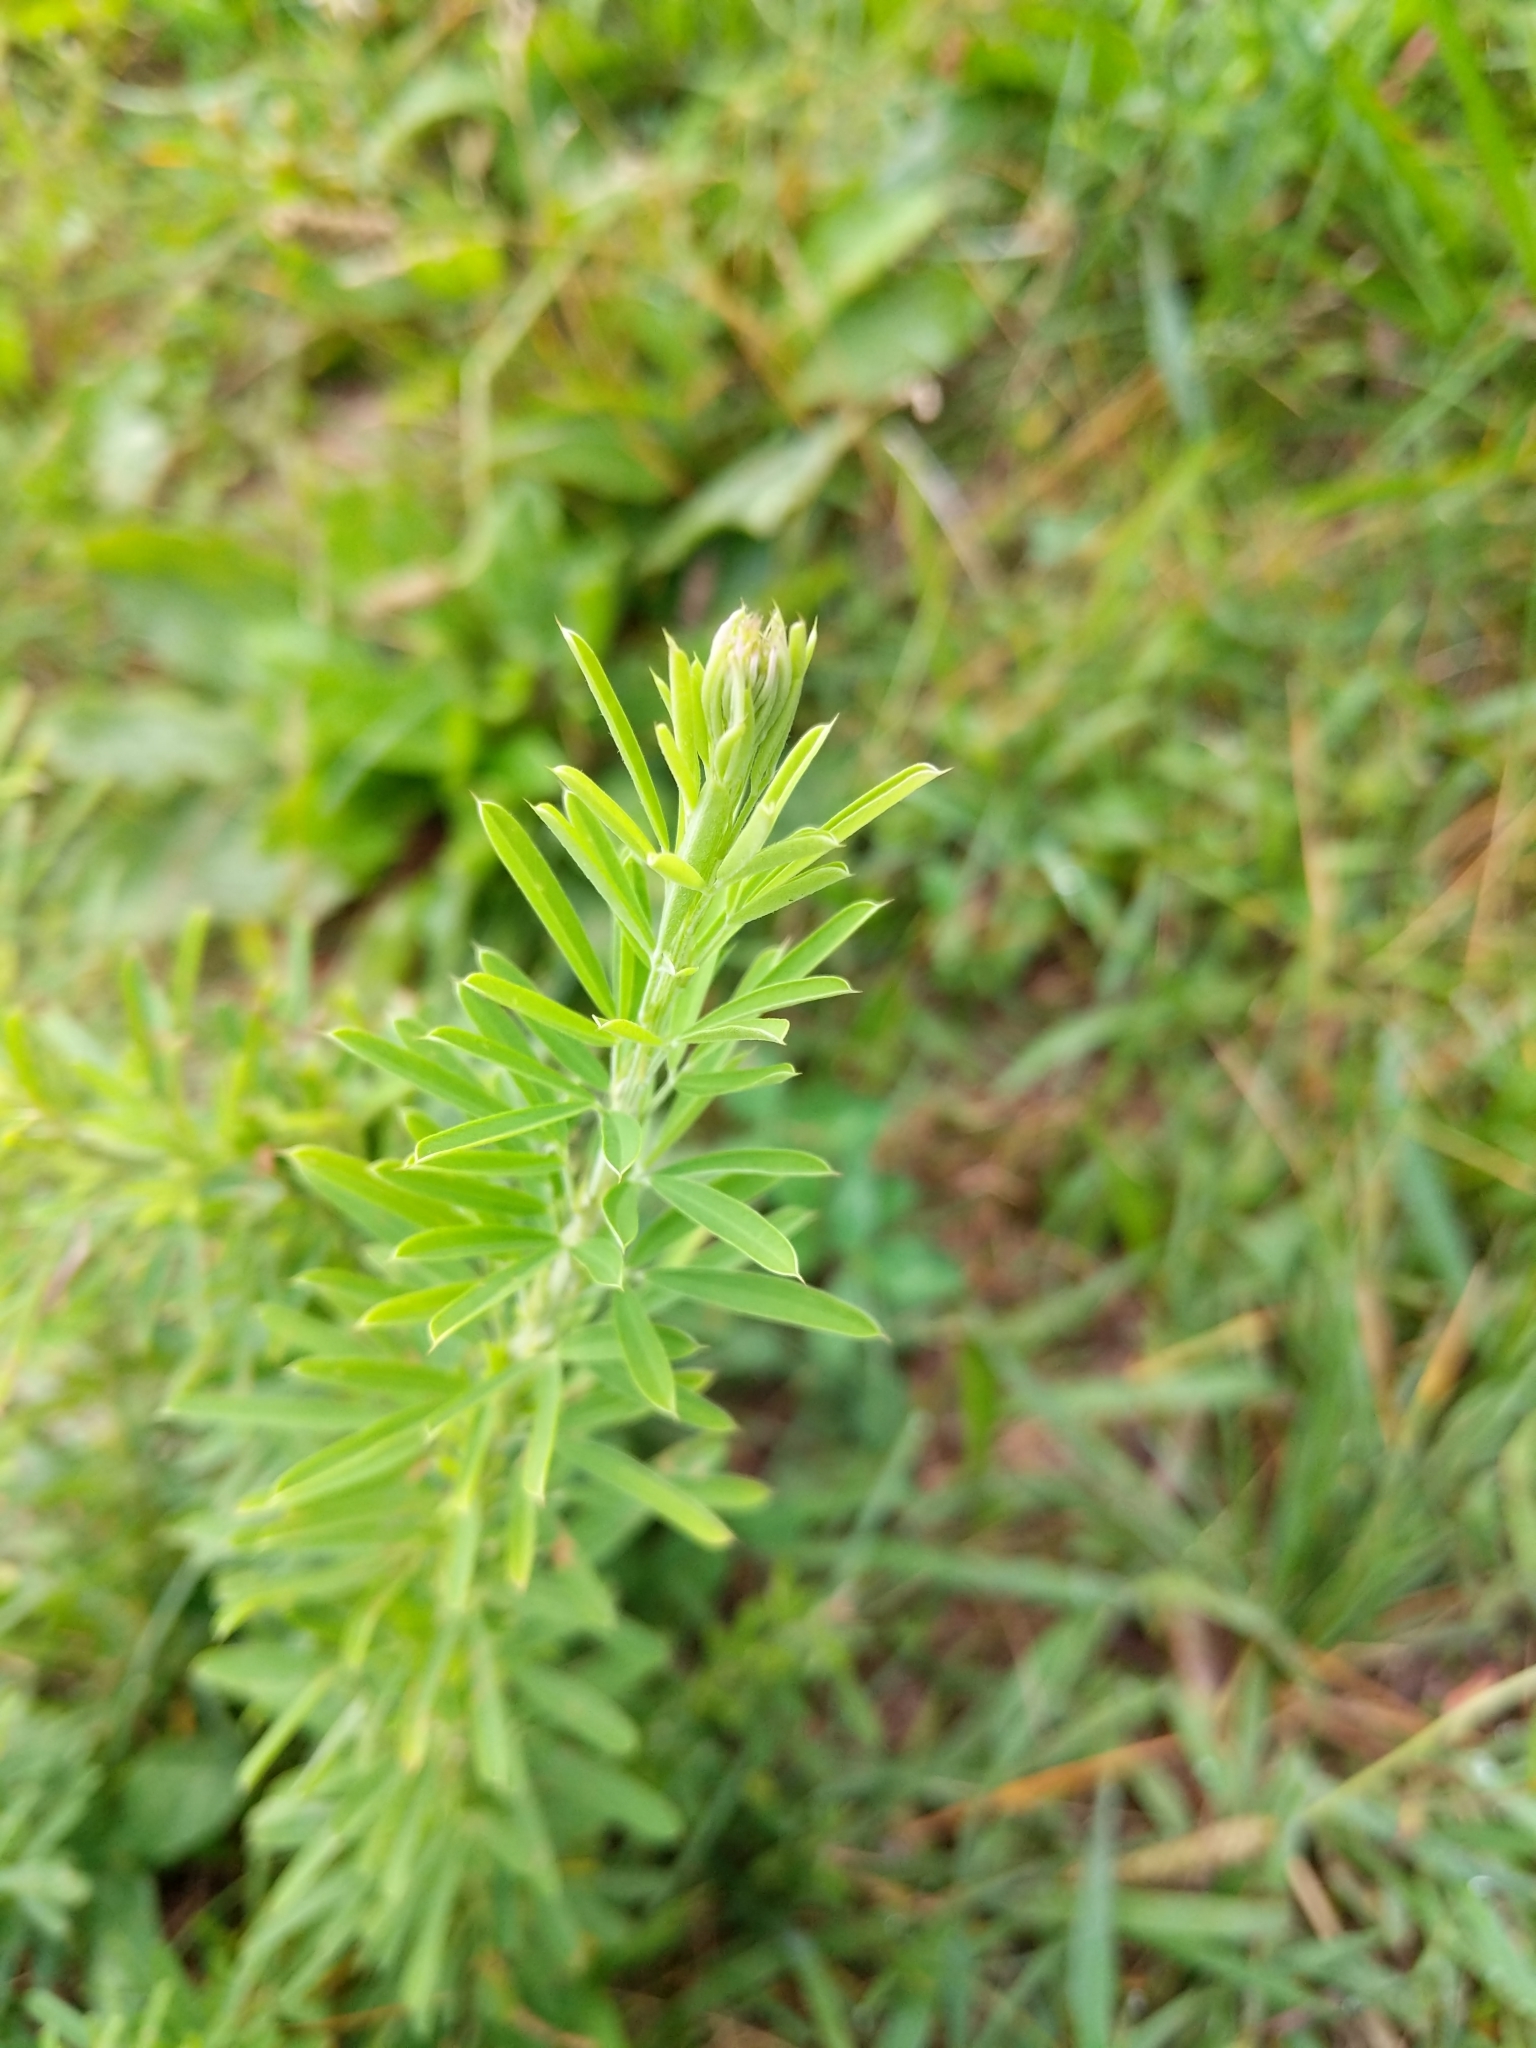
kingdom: Plantae
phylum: Tracheophyta
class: Magnoliopsida
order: Fabales
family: Fabaceae
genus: Lespedeza
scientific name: Lespedeza cuneata
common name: Chinese bush-clover
